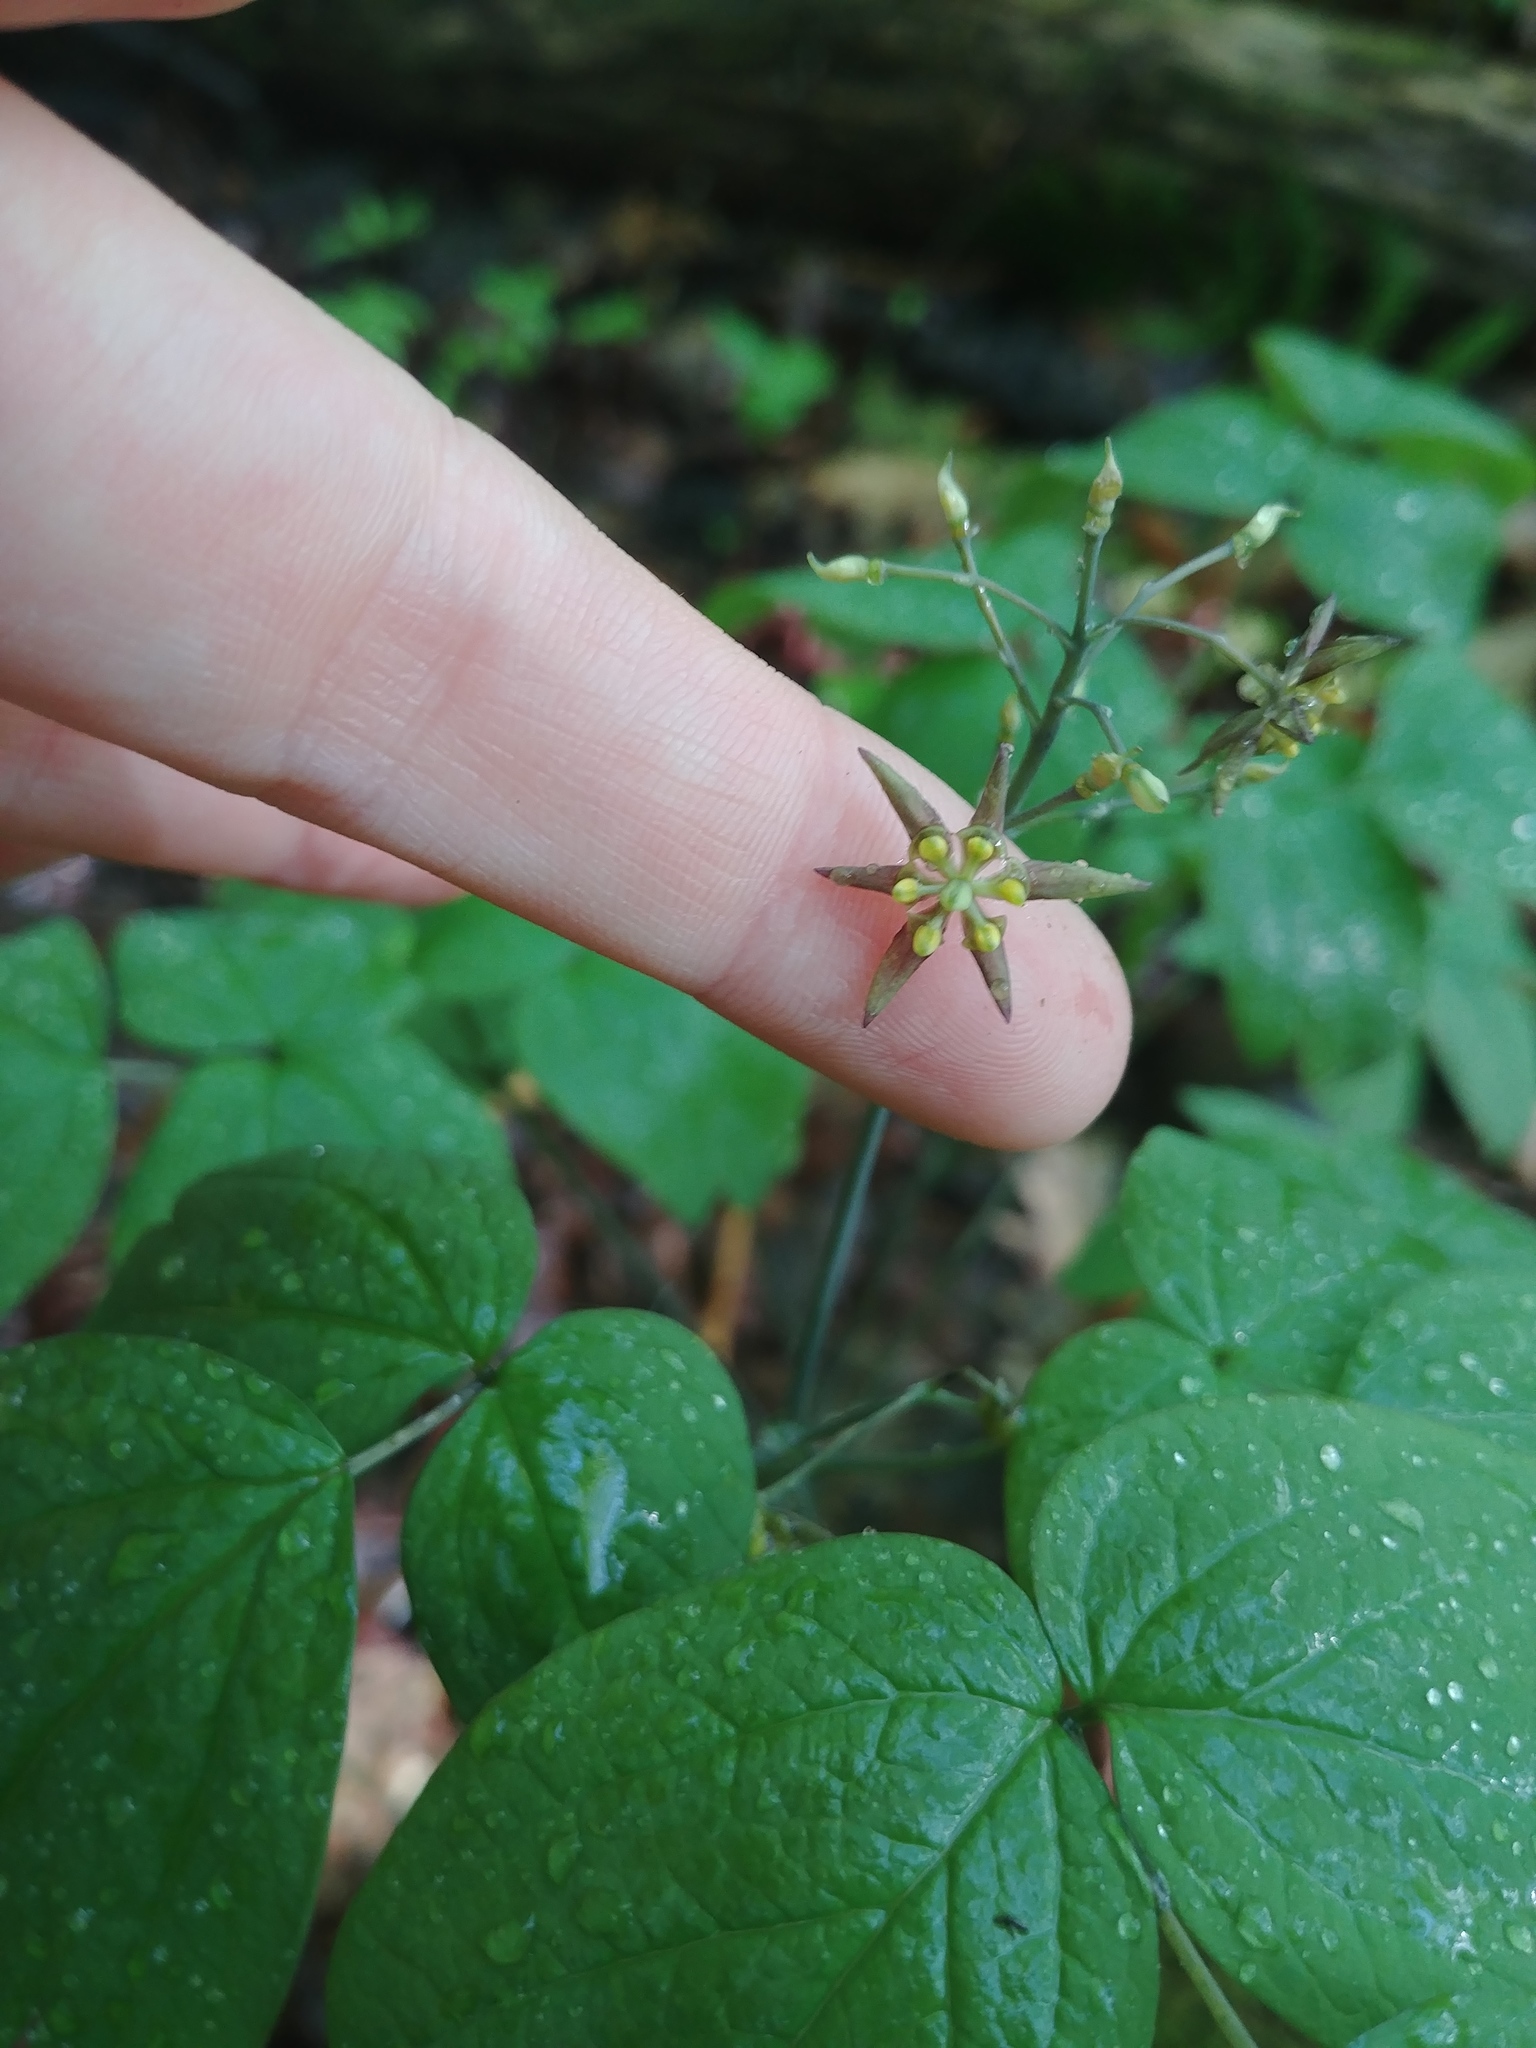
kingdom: Plantae
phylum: Tracheophyta
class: Magnoliopsida
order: Ranunculales
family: Berberidaceae
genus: Caulophyllum
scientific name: Caulophyllum thalictroides
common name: Blue cohosh
